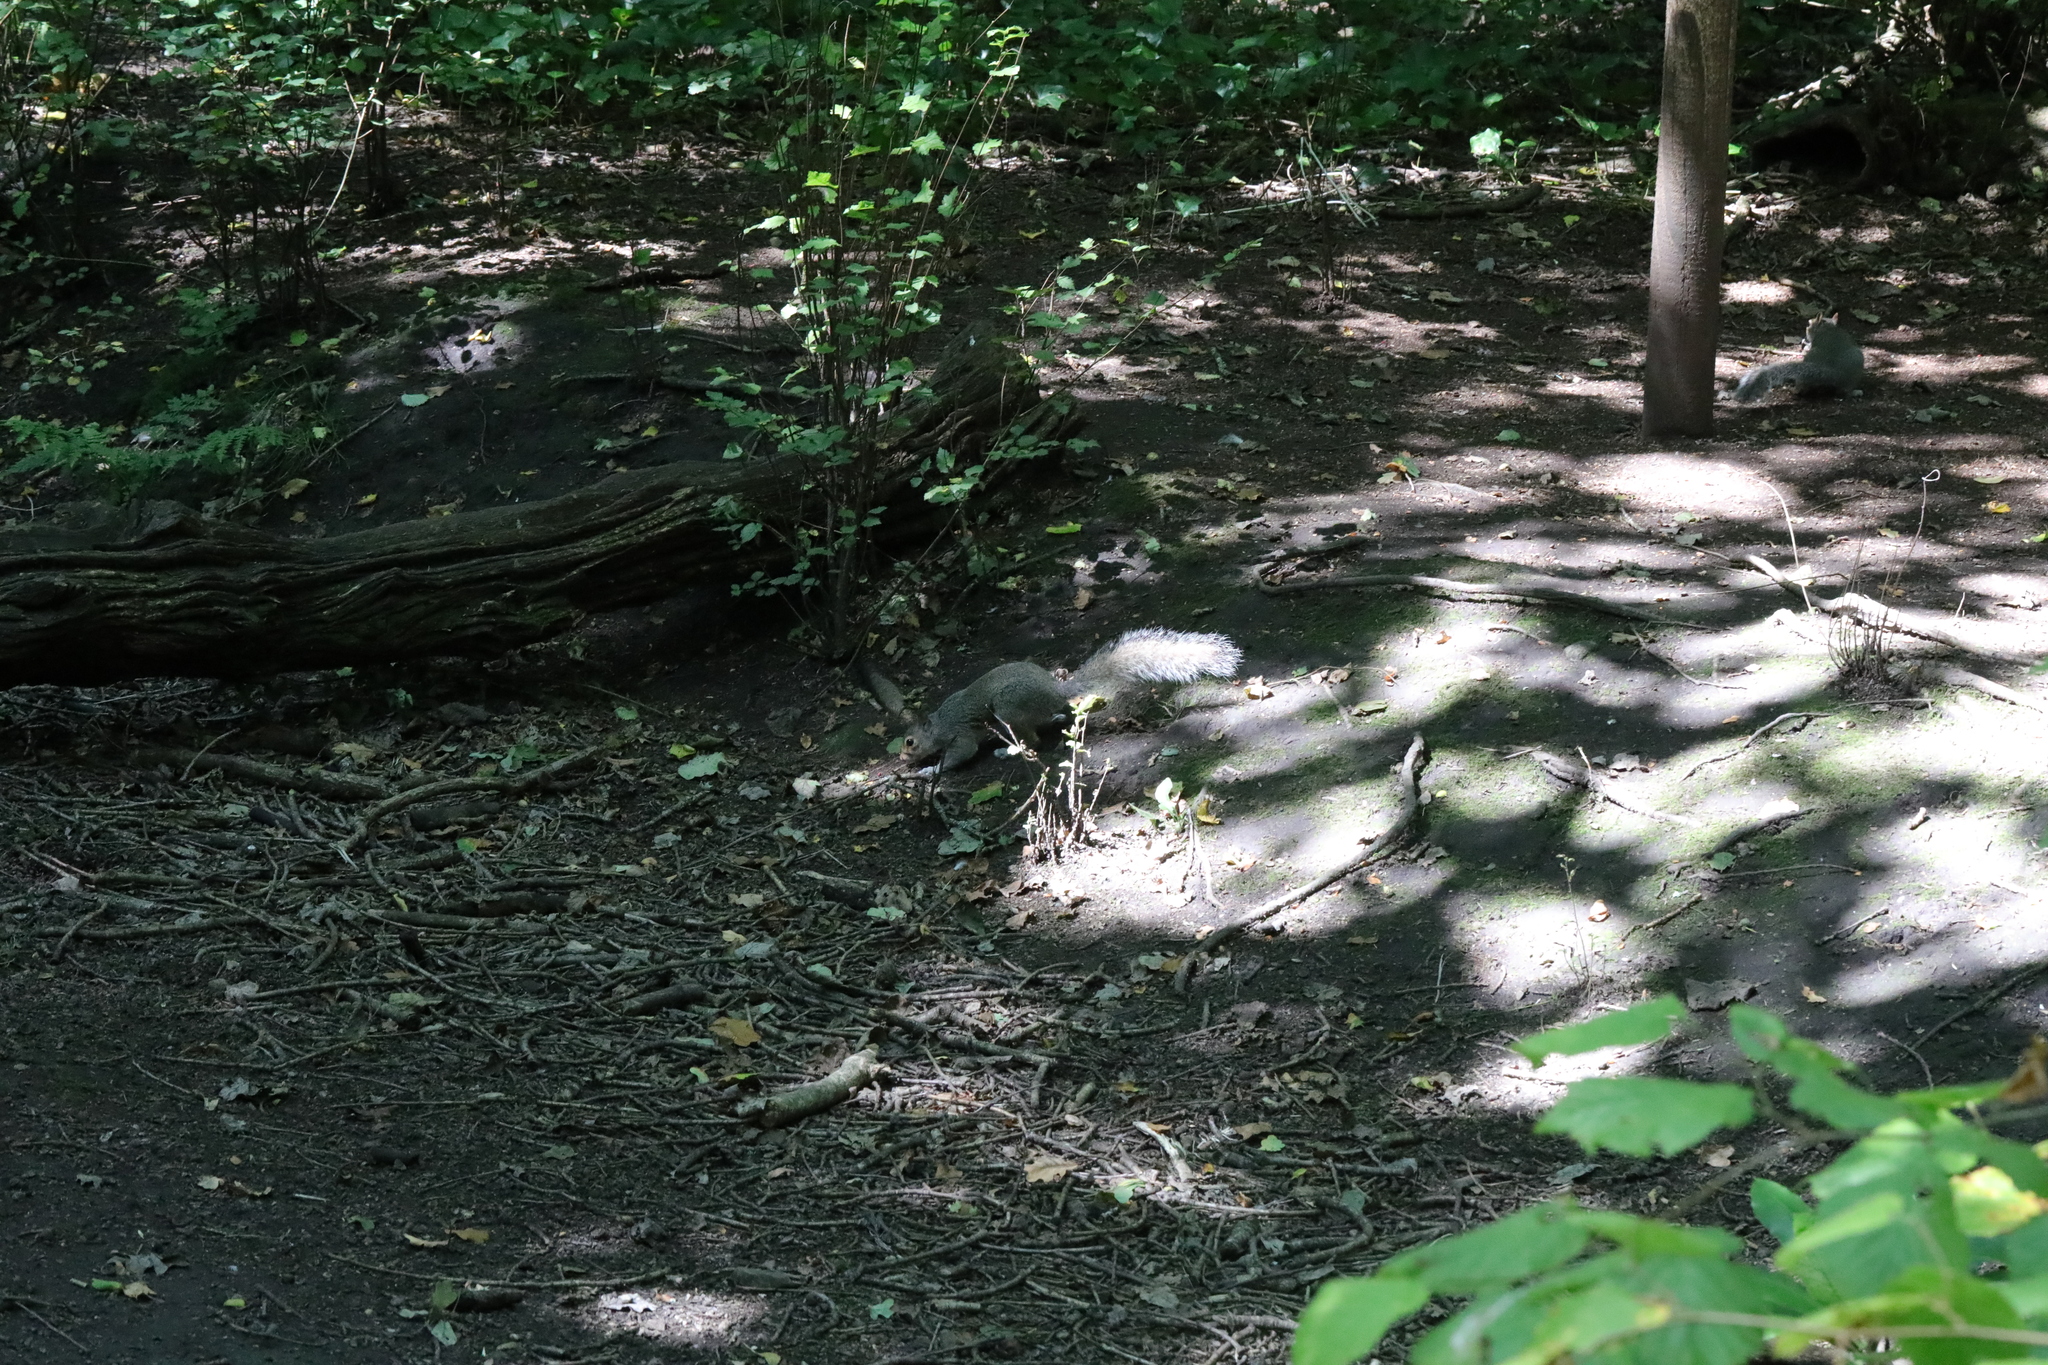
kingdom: Animalia
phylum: Chordata
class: Mammalia
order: Rodentia
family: Sciuridae
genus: Sciurus
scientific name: Sciurus carolinensis
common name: Eastern gray squirrel
